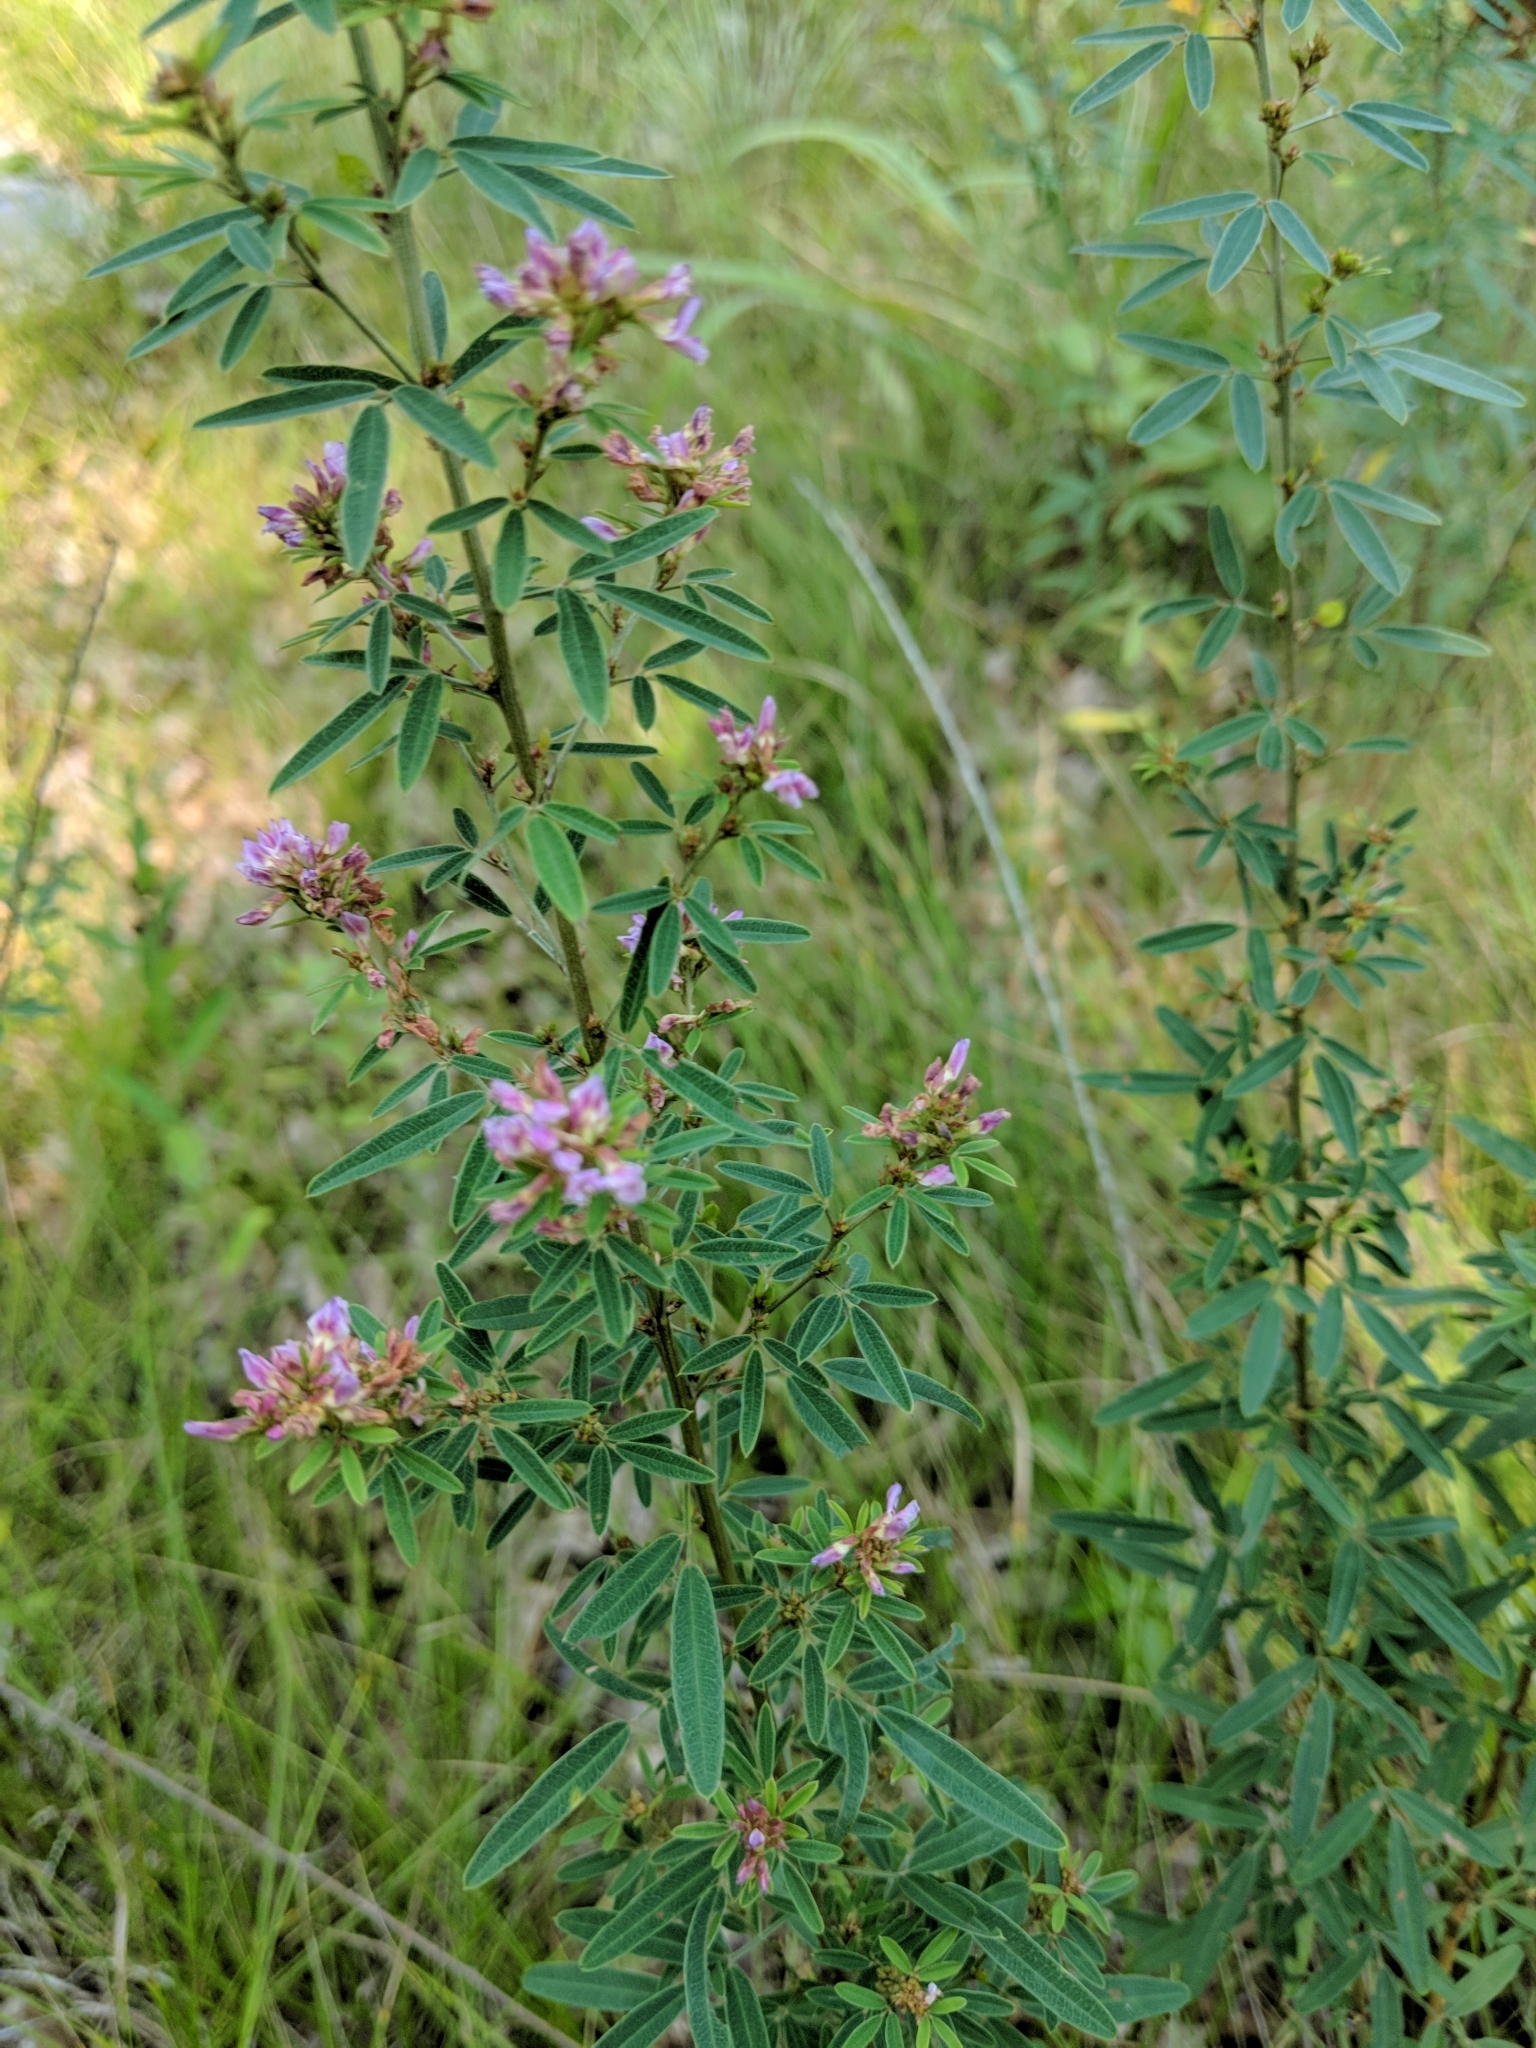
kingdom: Plantae
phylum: Tracheophyta
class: Magnoliopsida
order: Fabales
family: Fabaceae
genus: Lespedeza
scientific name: Lespedeza virginica
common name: Slender bush-clover
